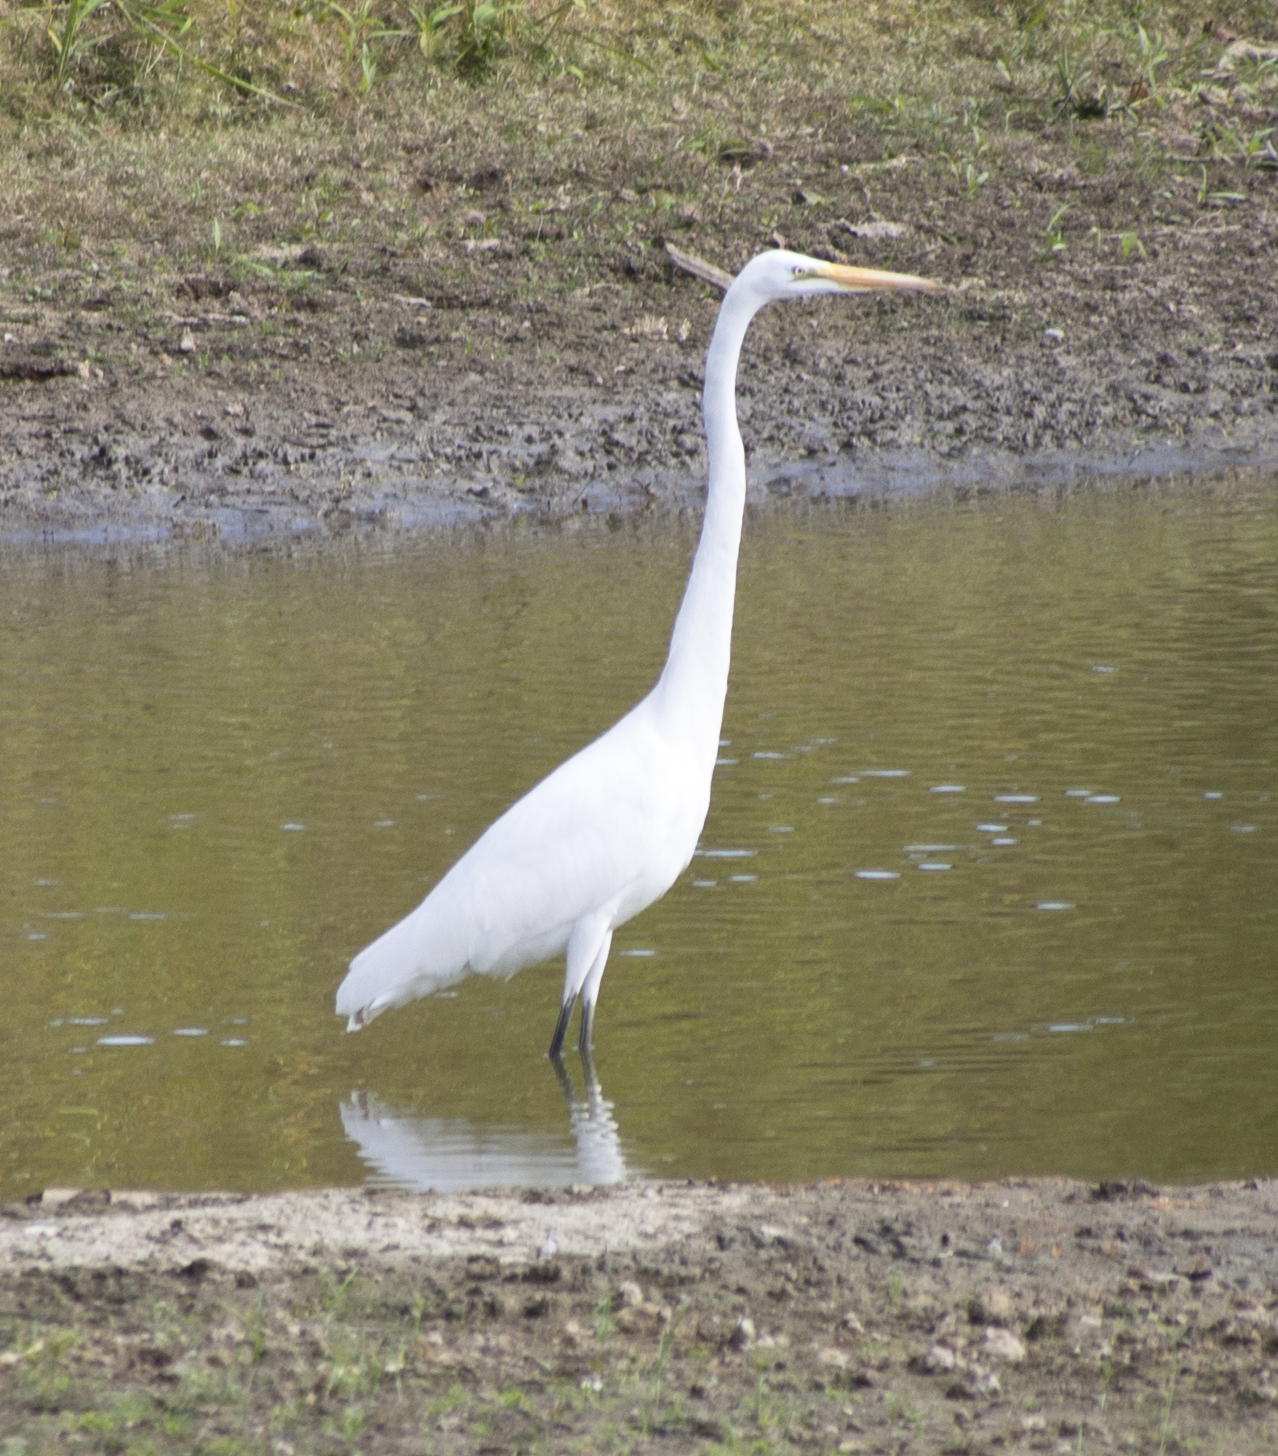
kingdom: Animalia
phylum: Chordata
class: Aves
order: Pelecaniformes
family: Ardeidae
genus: Ardea
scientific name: Ardea alba
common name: Great egret
